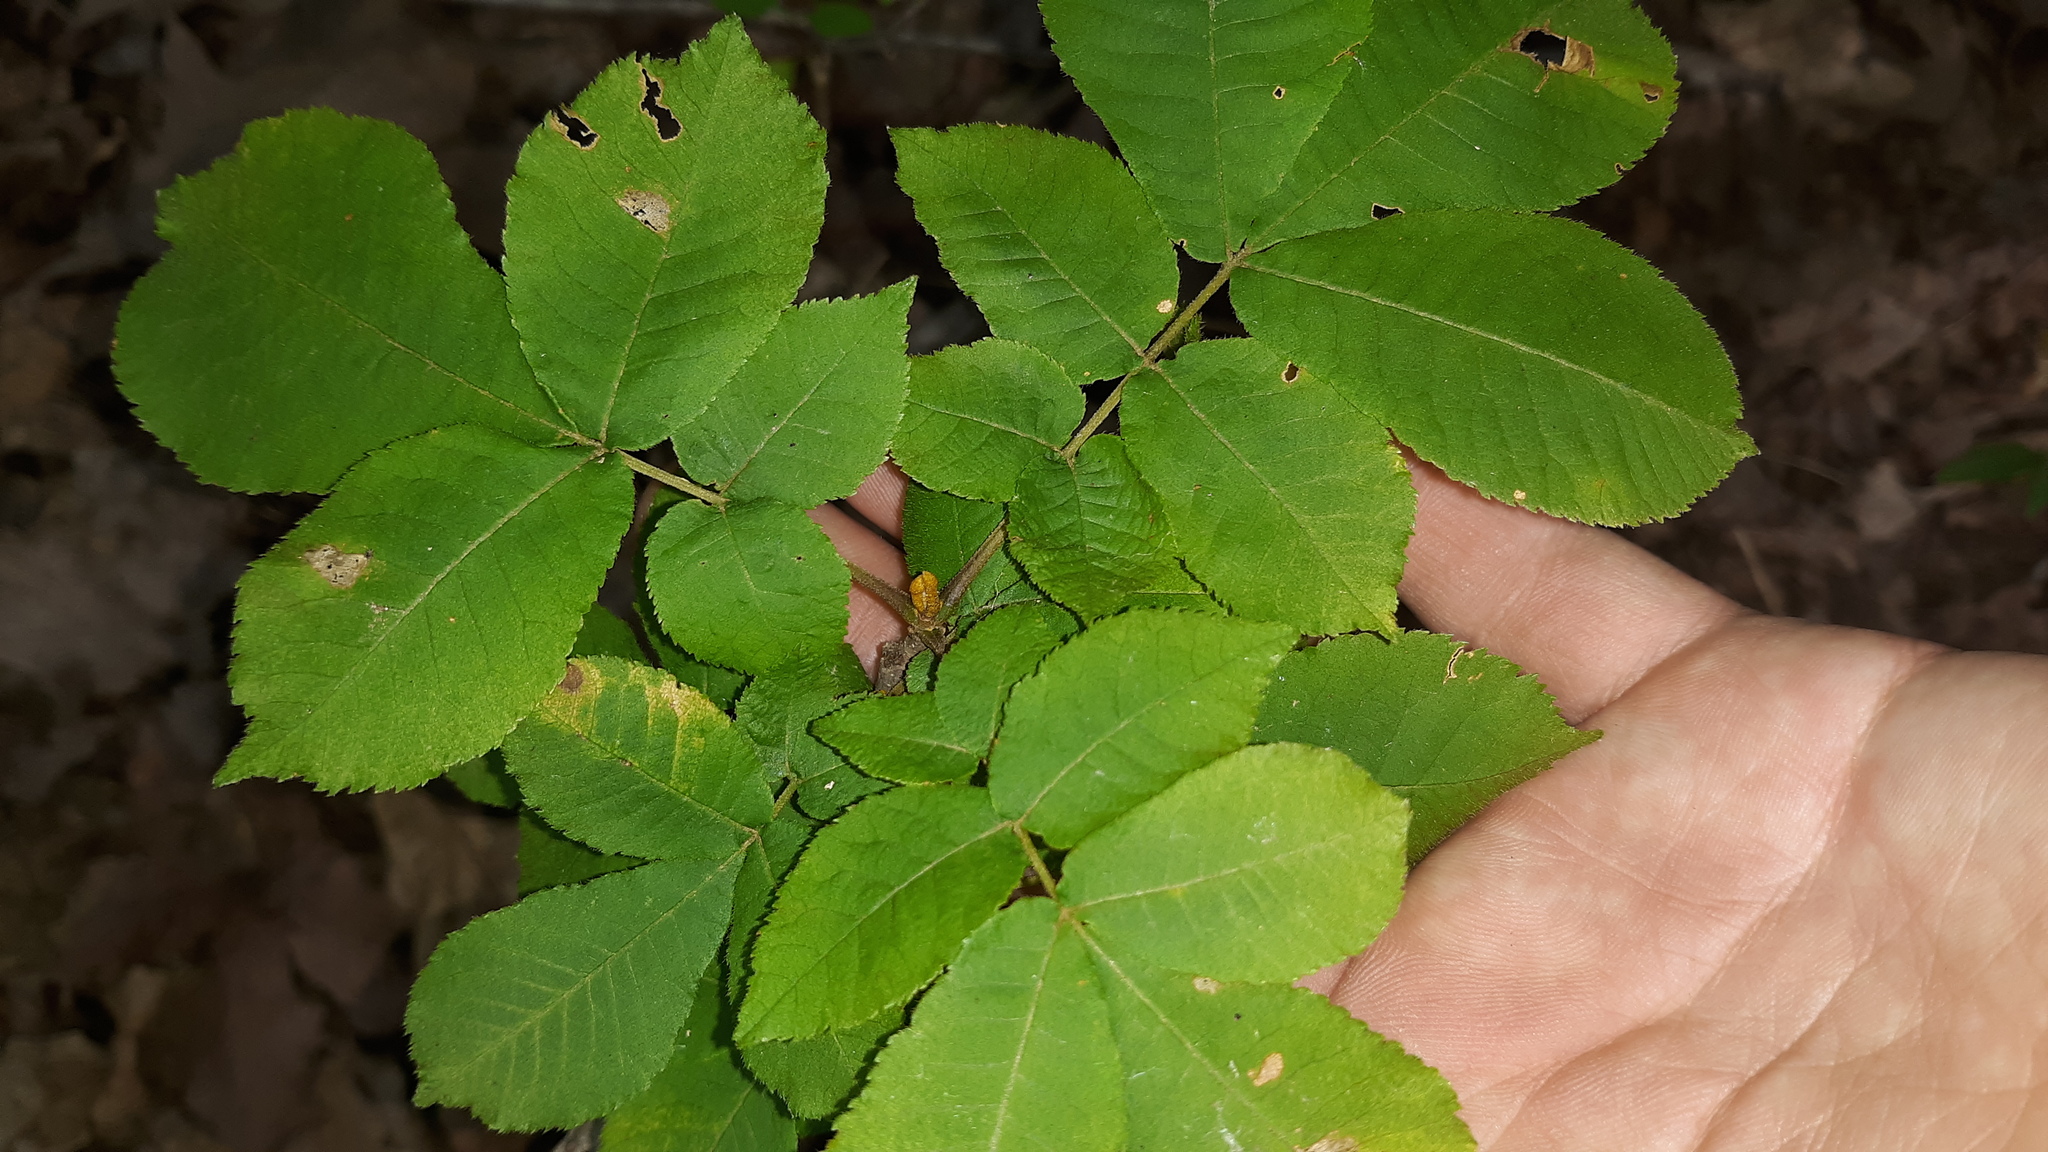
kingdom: Plantae
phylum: Tracheophyta
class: Magnoliopsida
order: Fagales
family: Juglandaceae
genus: Carya
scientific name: Carya cordiformis
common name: Bitternut hickory
